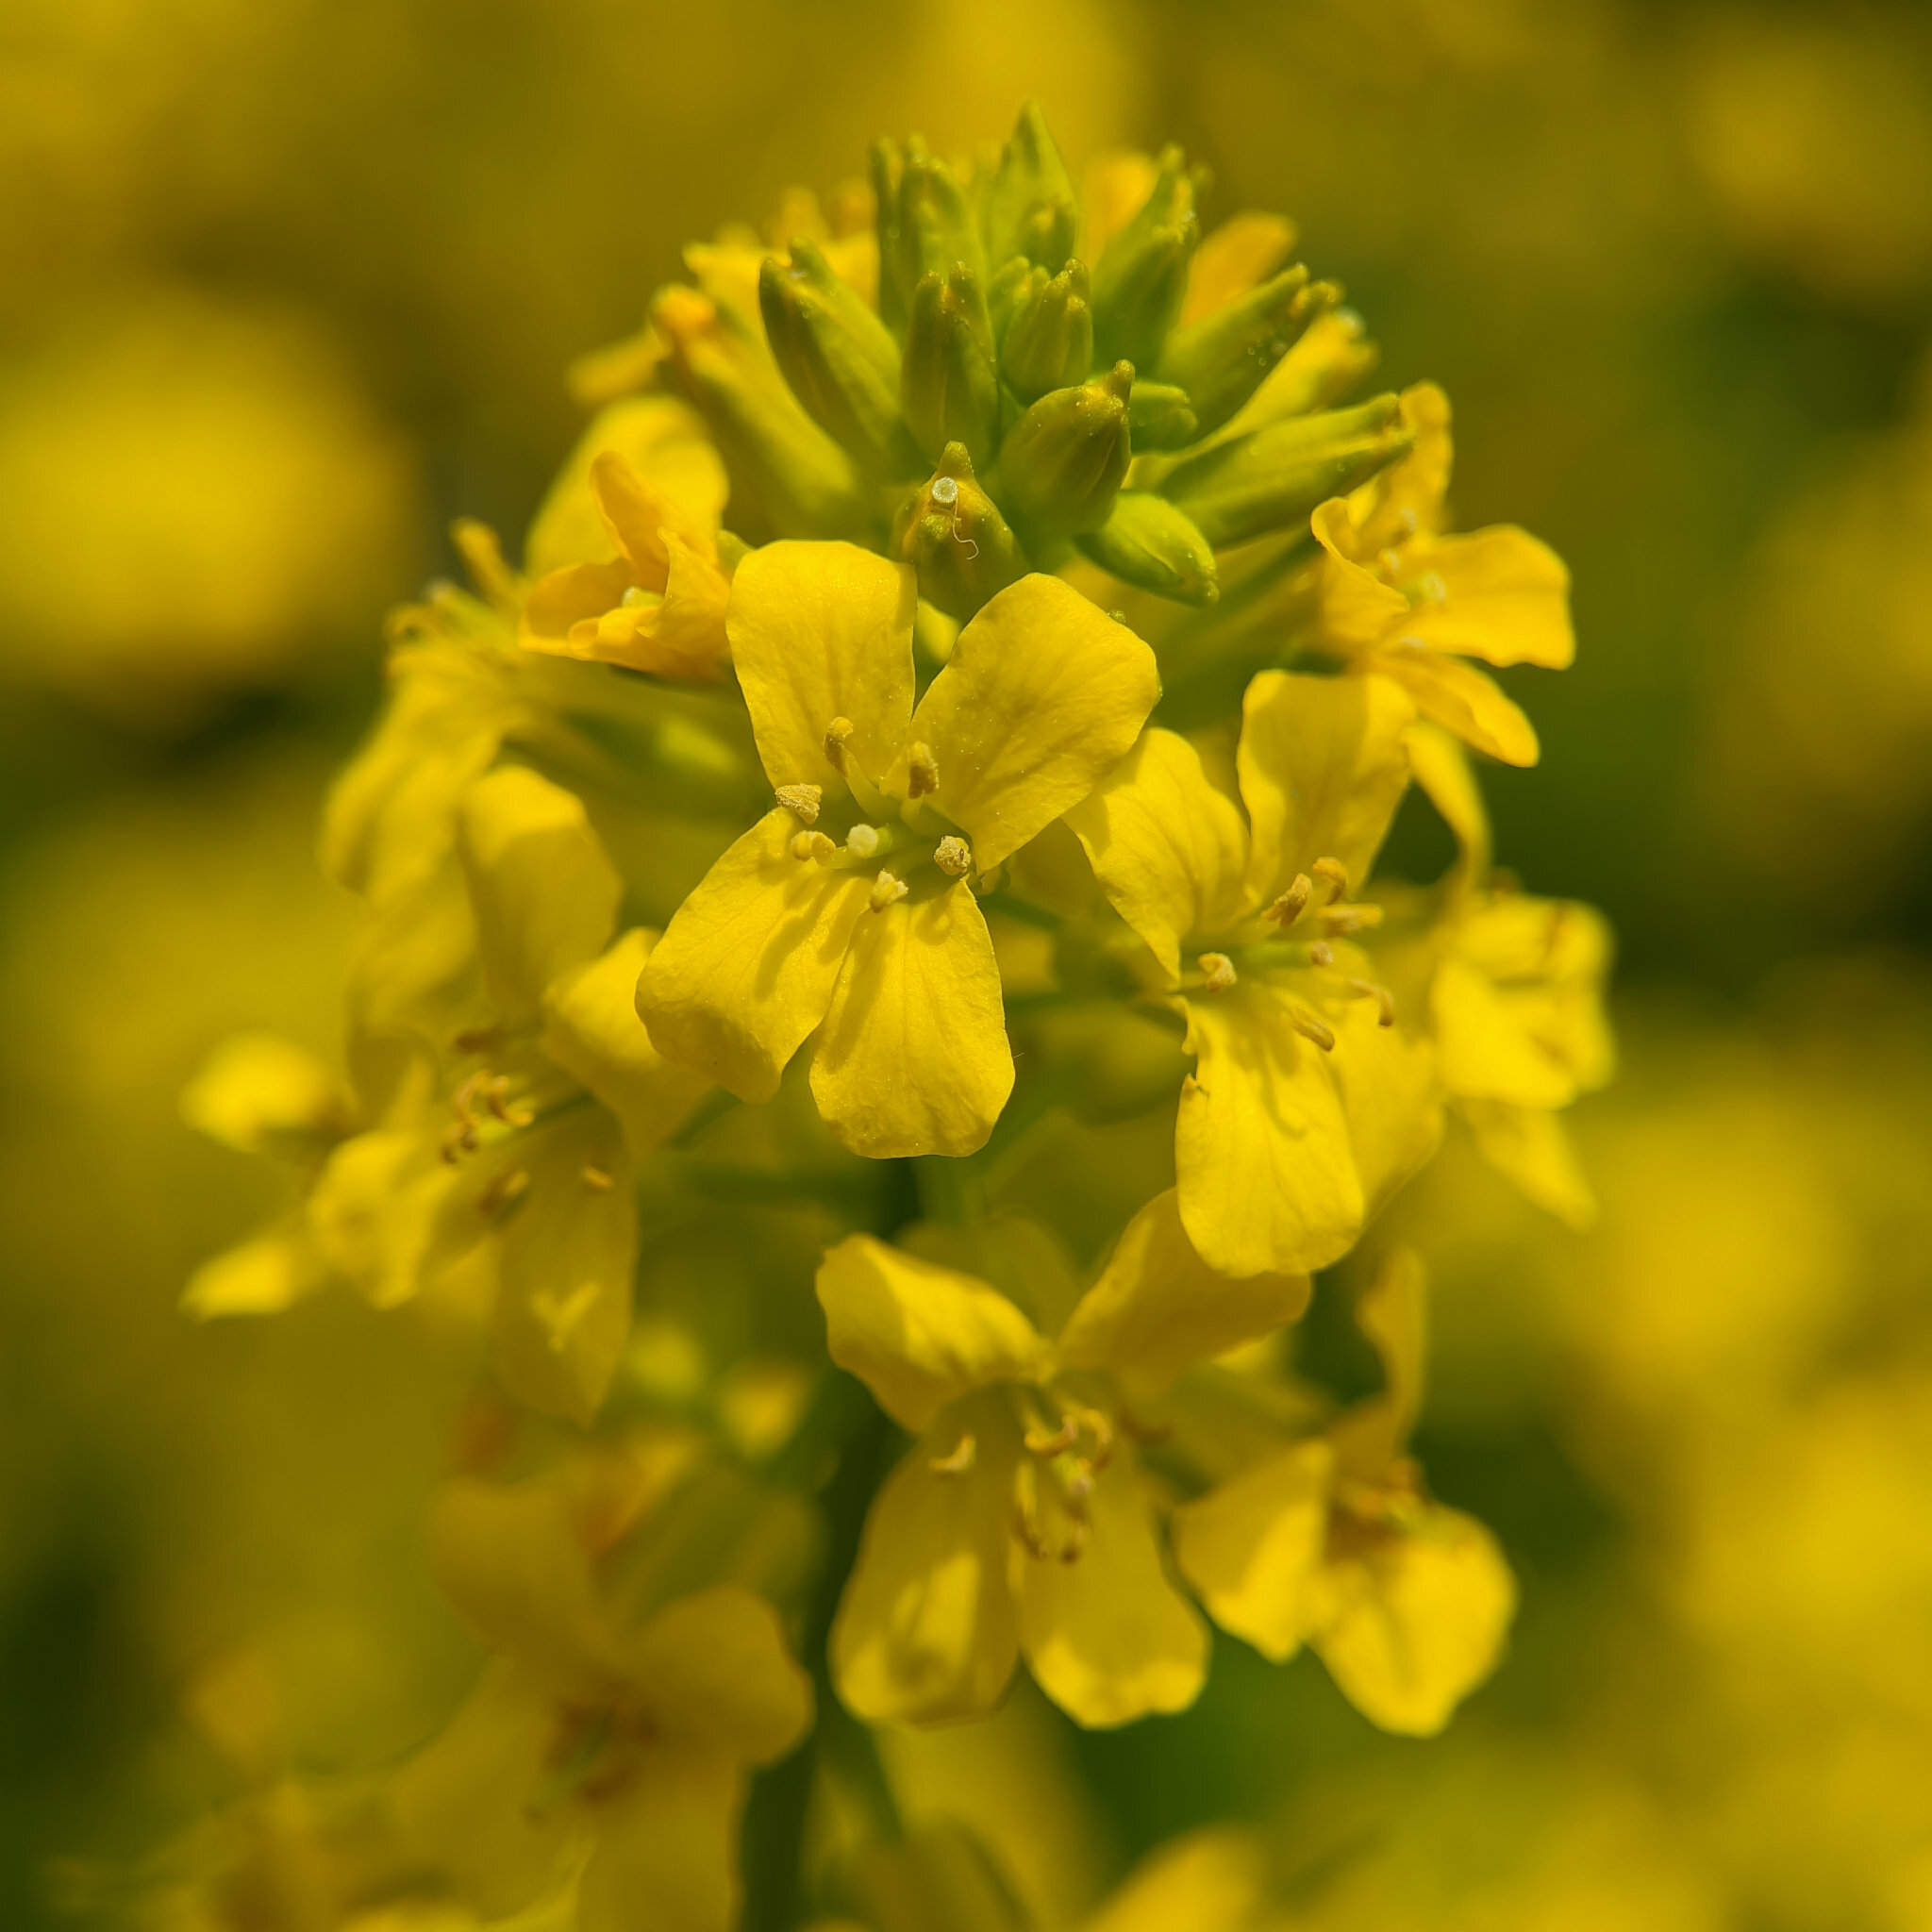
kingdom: Plantae
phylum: Tracheophyta
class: Magnoliopsida
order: Brassicales
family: Brassicaceae
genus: Barbarea
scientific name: Barbarea vulgaris
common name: Cressy-greens
